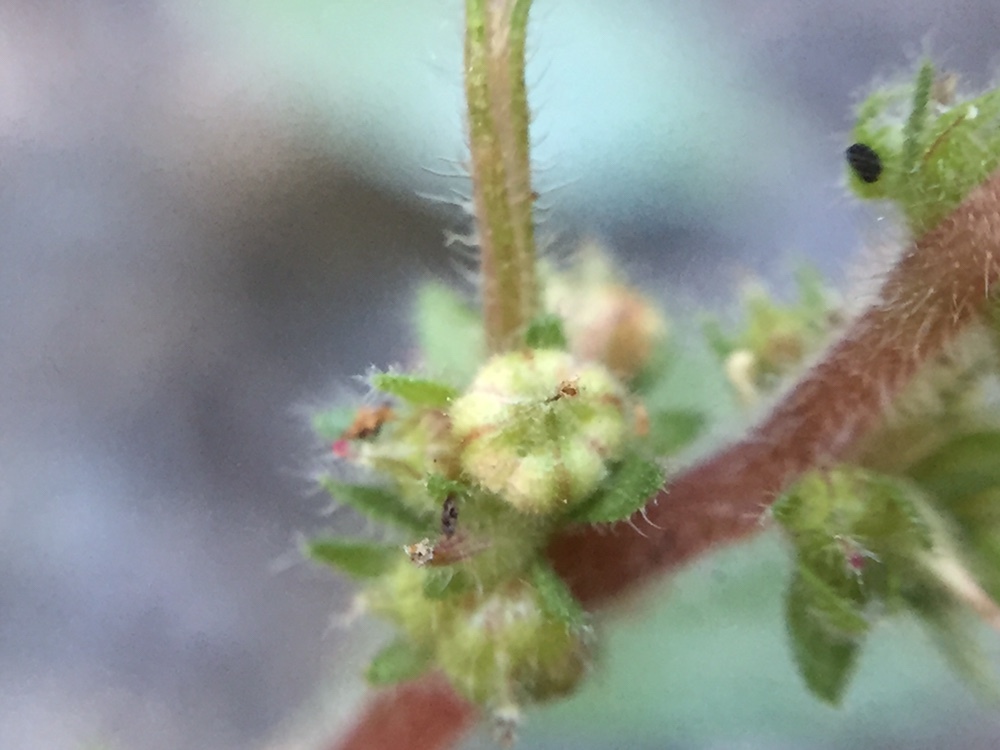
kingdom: Plantae
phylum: Tracheophyta
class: Magnoliopsida
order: Rosales
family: Urticaceae
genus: Parietaria
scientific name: Parietaria judaica
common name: Pellitory-of-the-wall
